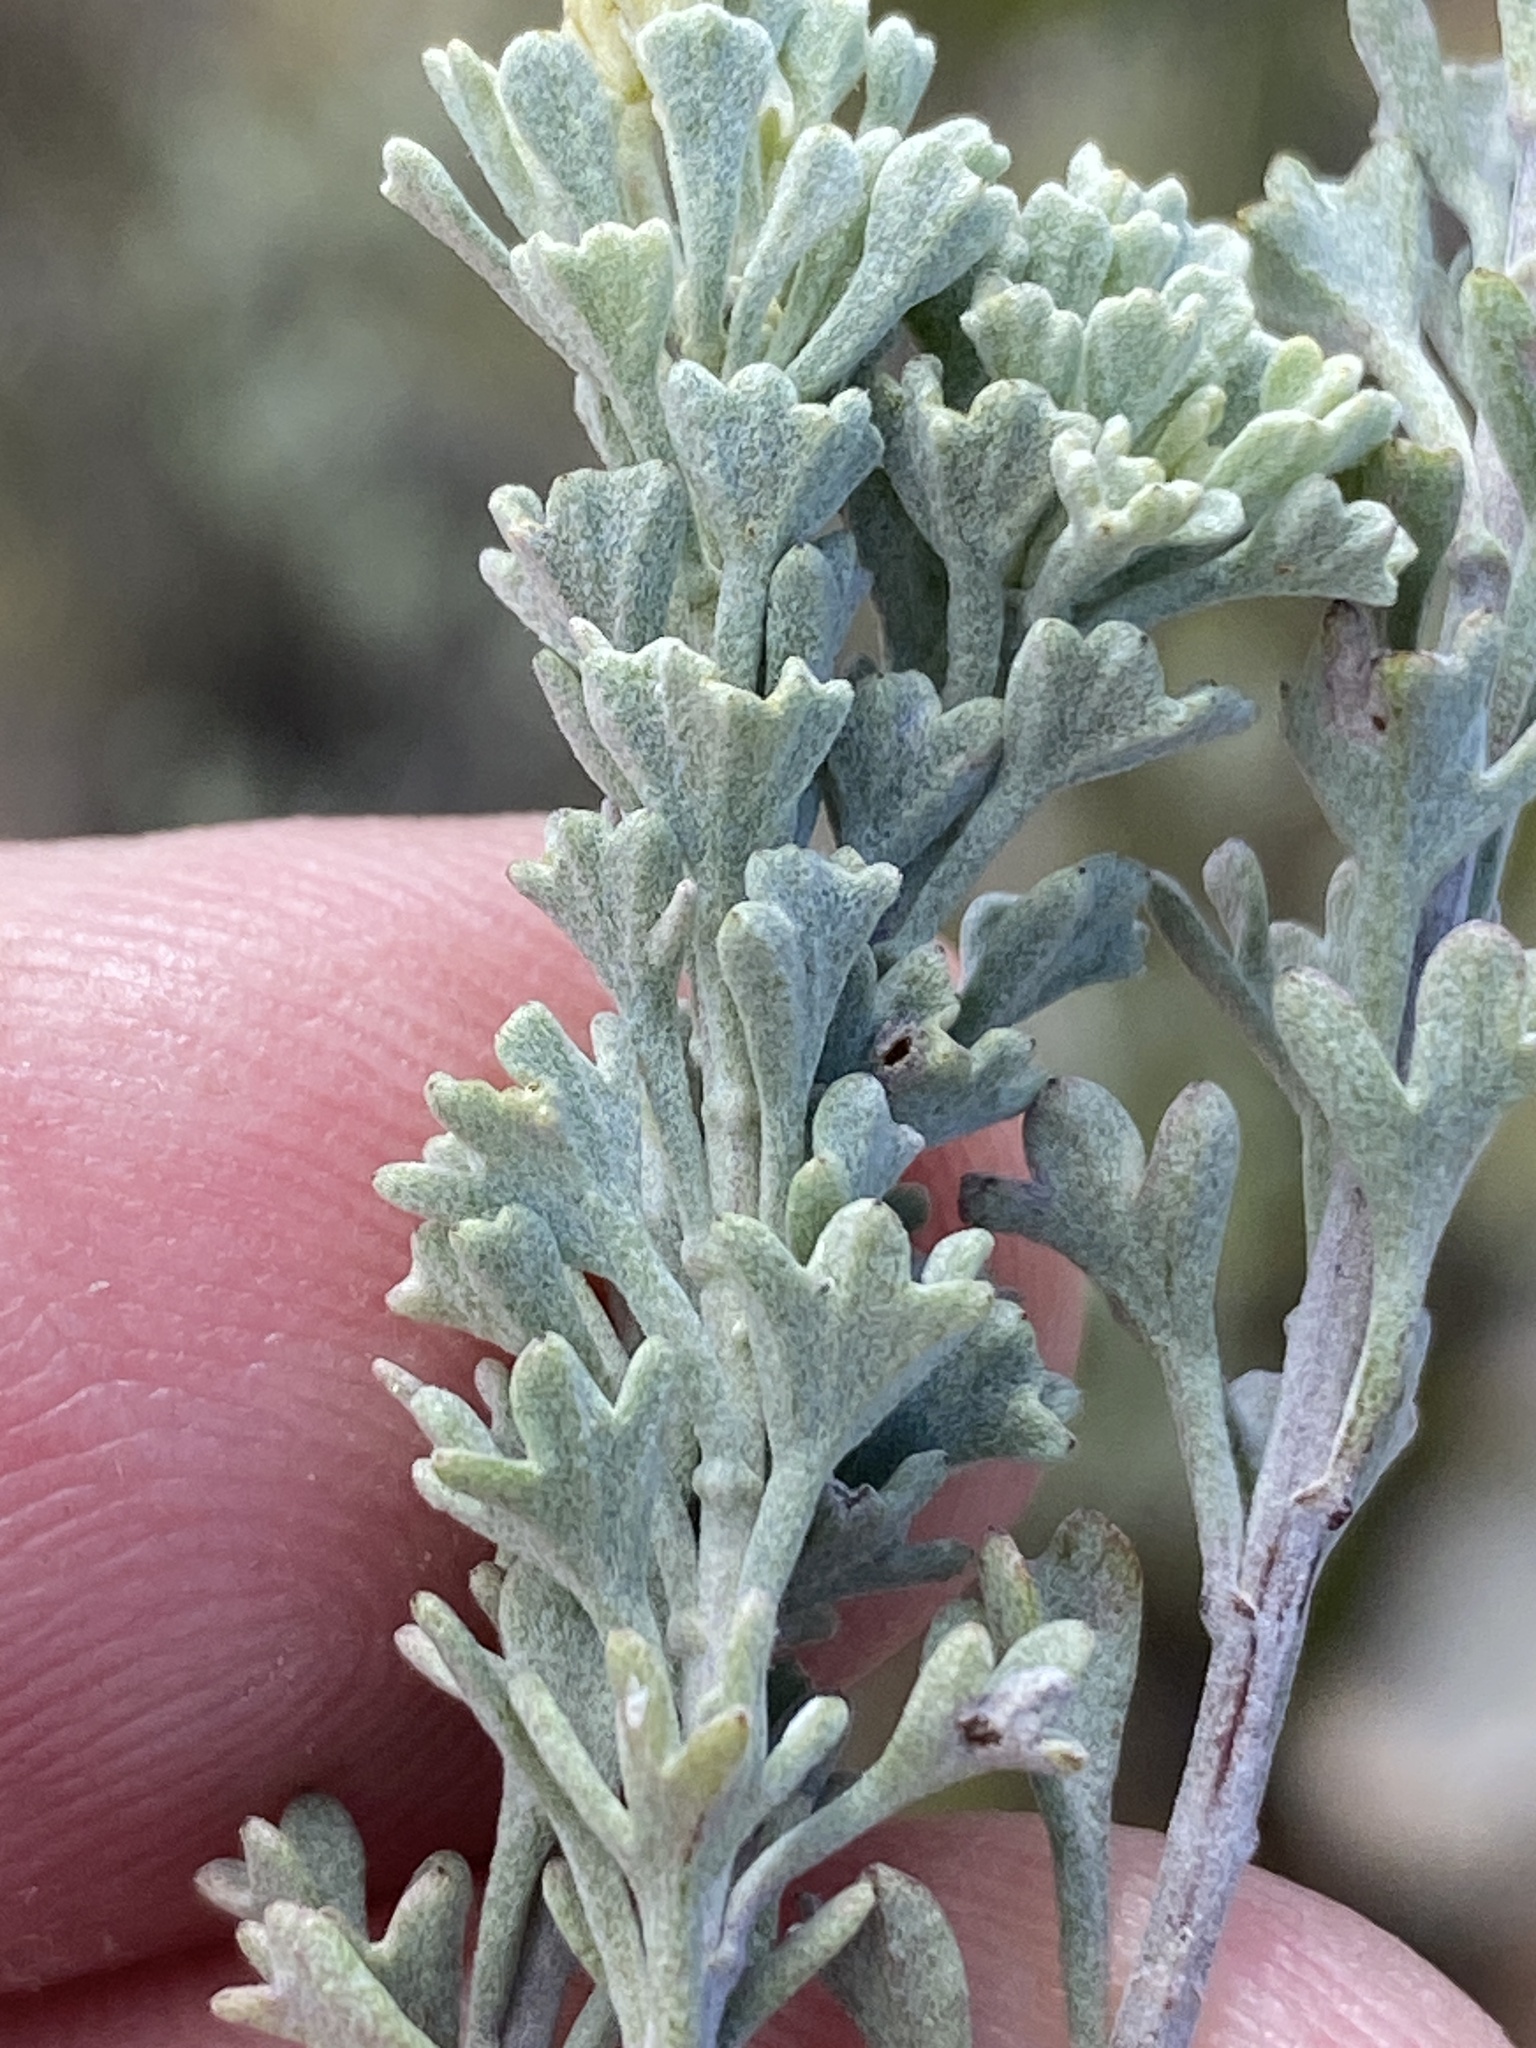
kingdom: Plantae
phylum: Tracheophyta
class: Magnoliopsida
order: Asterales
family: Asteraceae
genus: Pentzia
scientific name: Pentzia dentata
